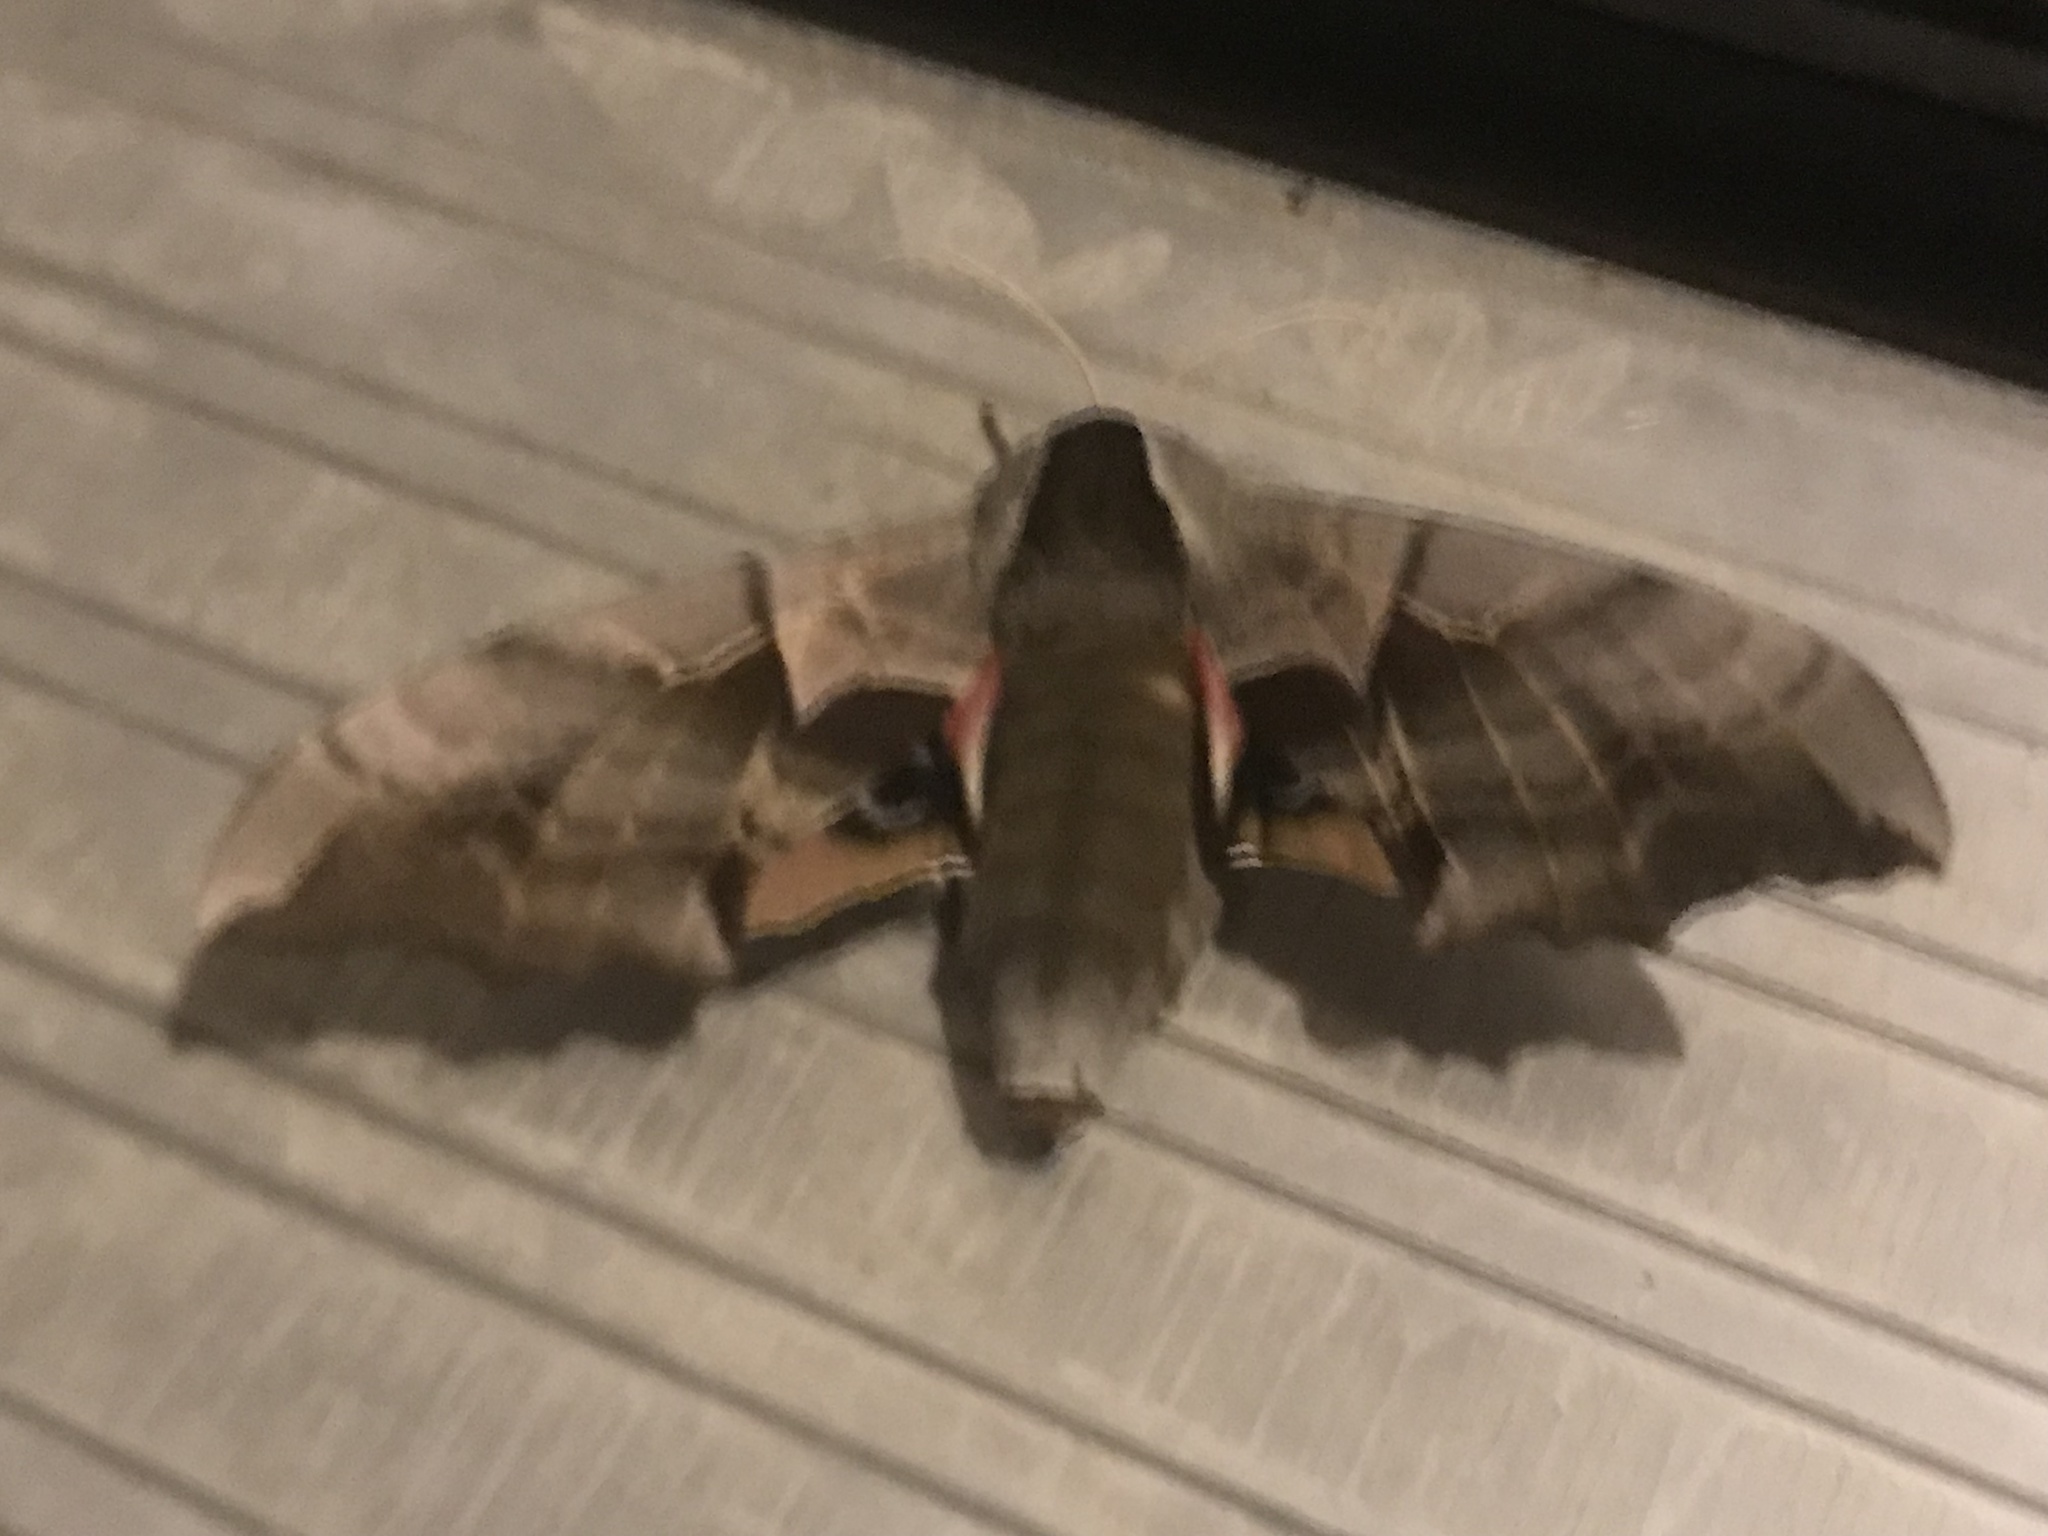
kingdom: Animalia
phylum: Arthropoda
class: Insecta
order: Lepidoptera
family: Sphingidae
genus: Smerinthus
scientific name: Smerinthus cerisyi
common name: Cerisy's sphinx moth
